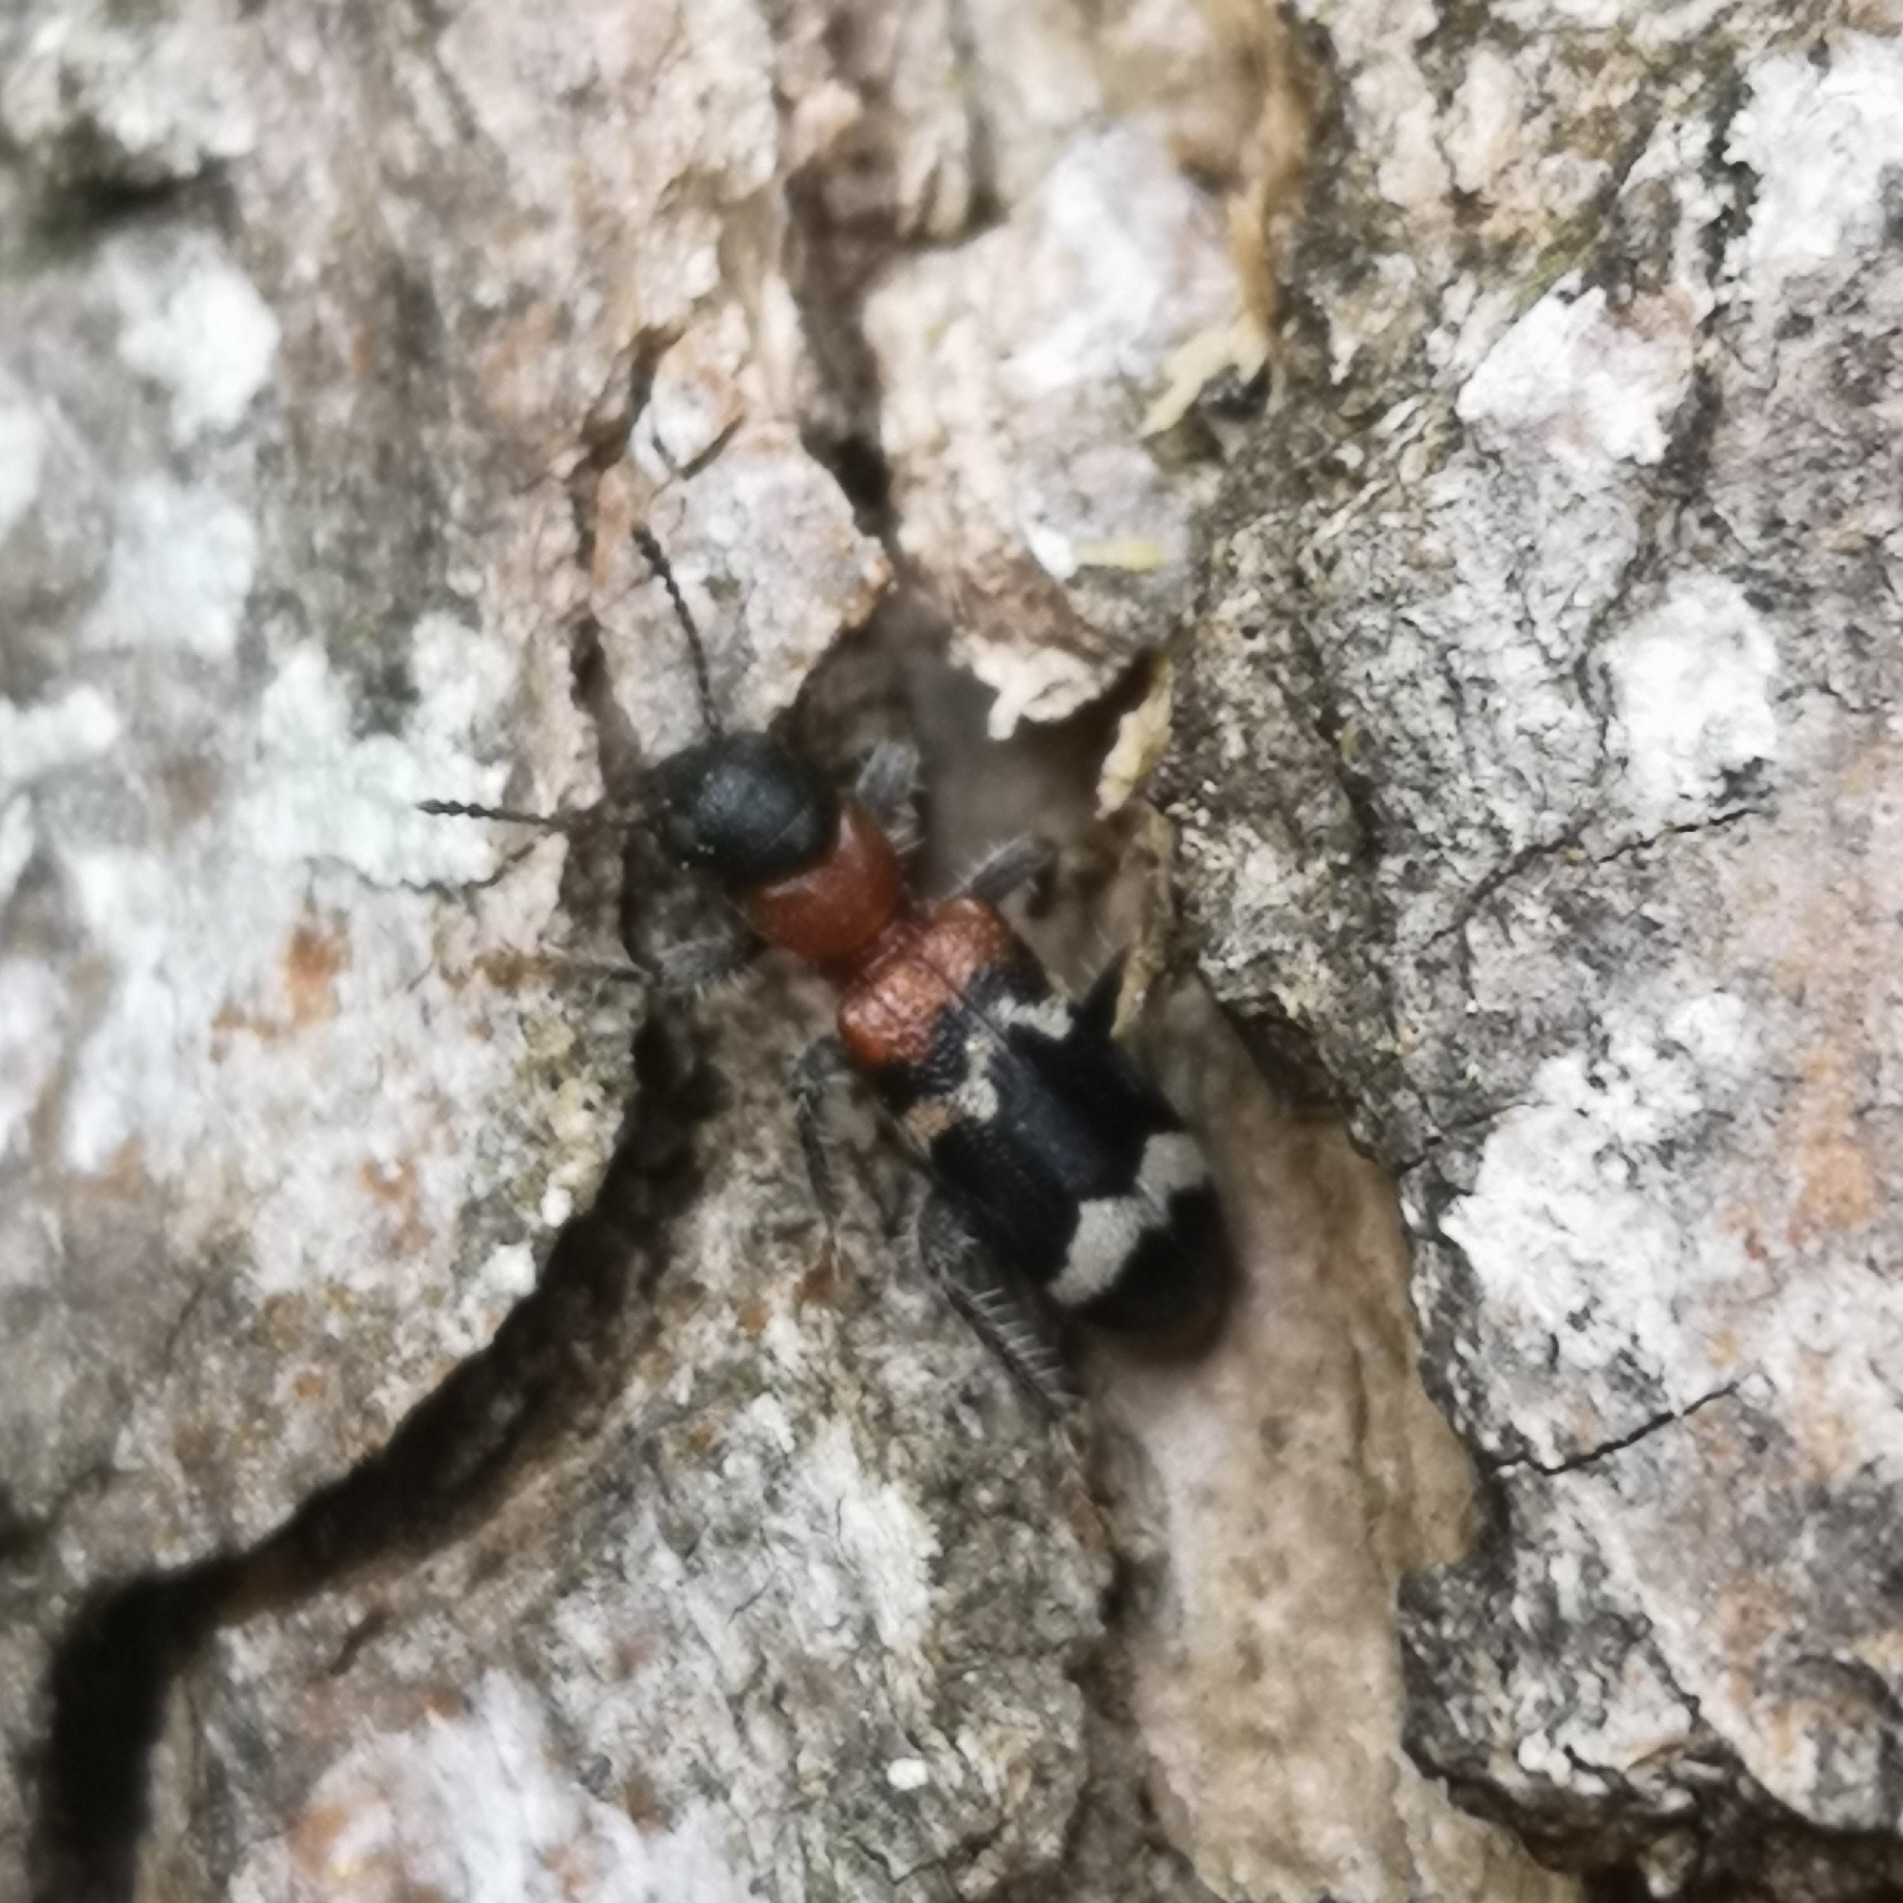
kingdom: Animalia
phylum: Arthropoda
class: Insecta
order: Coleoptera
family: Cleridae
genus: Thanasimus
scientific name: Thanasimus formicarius
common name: Ant beetle
